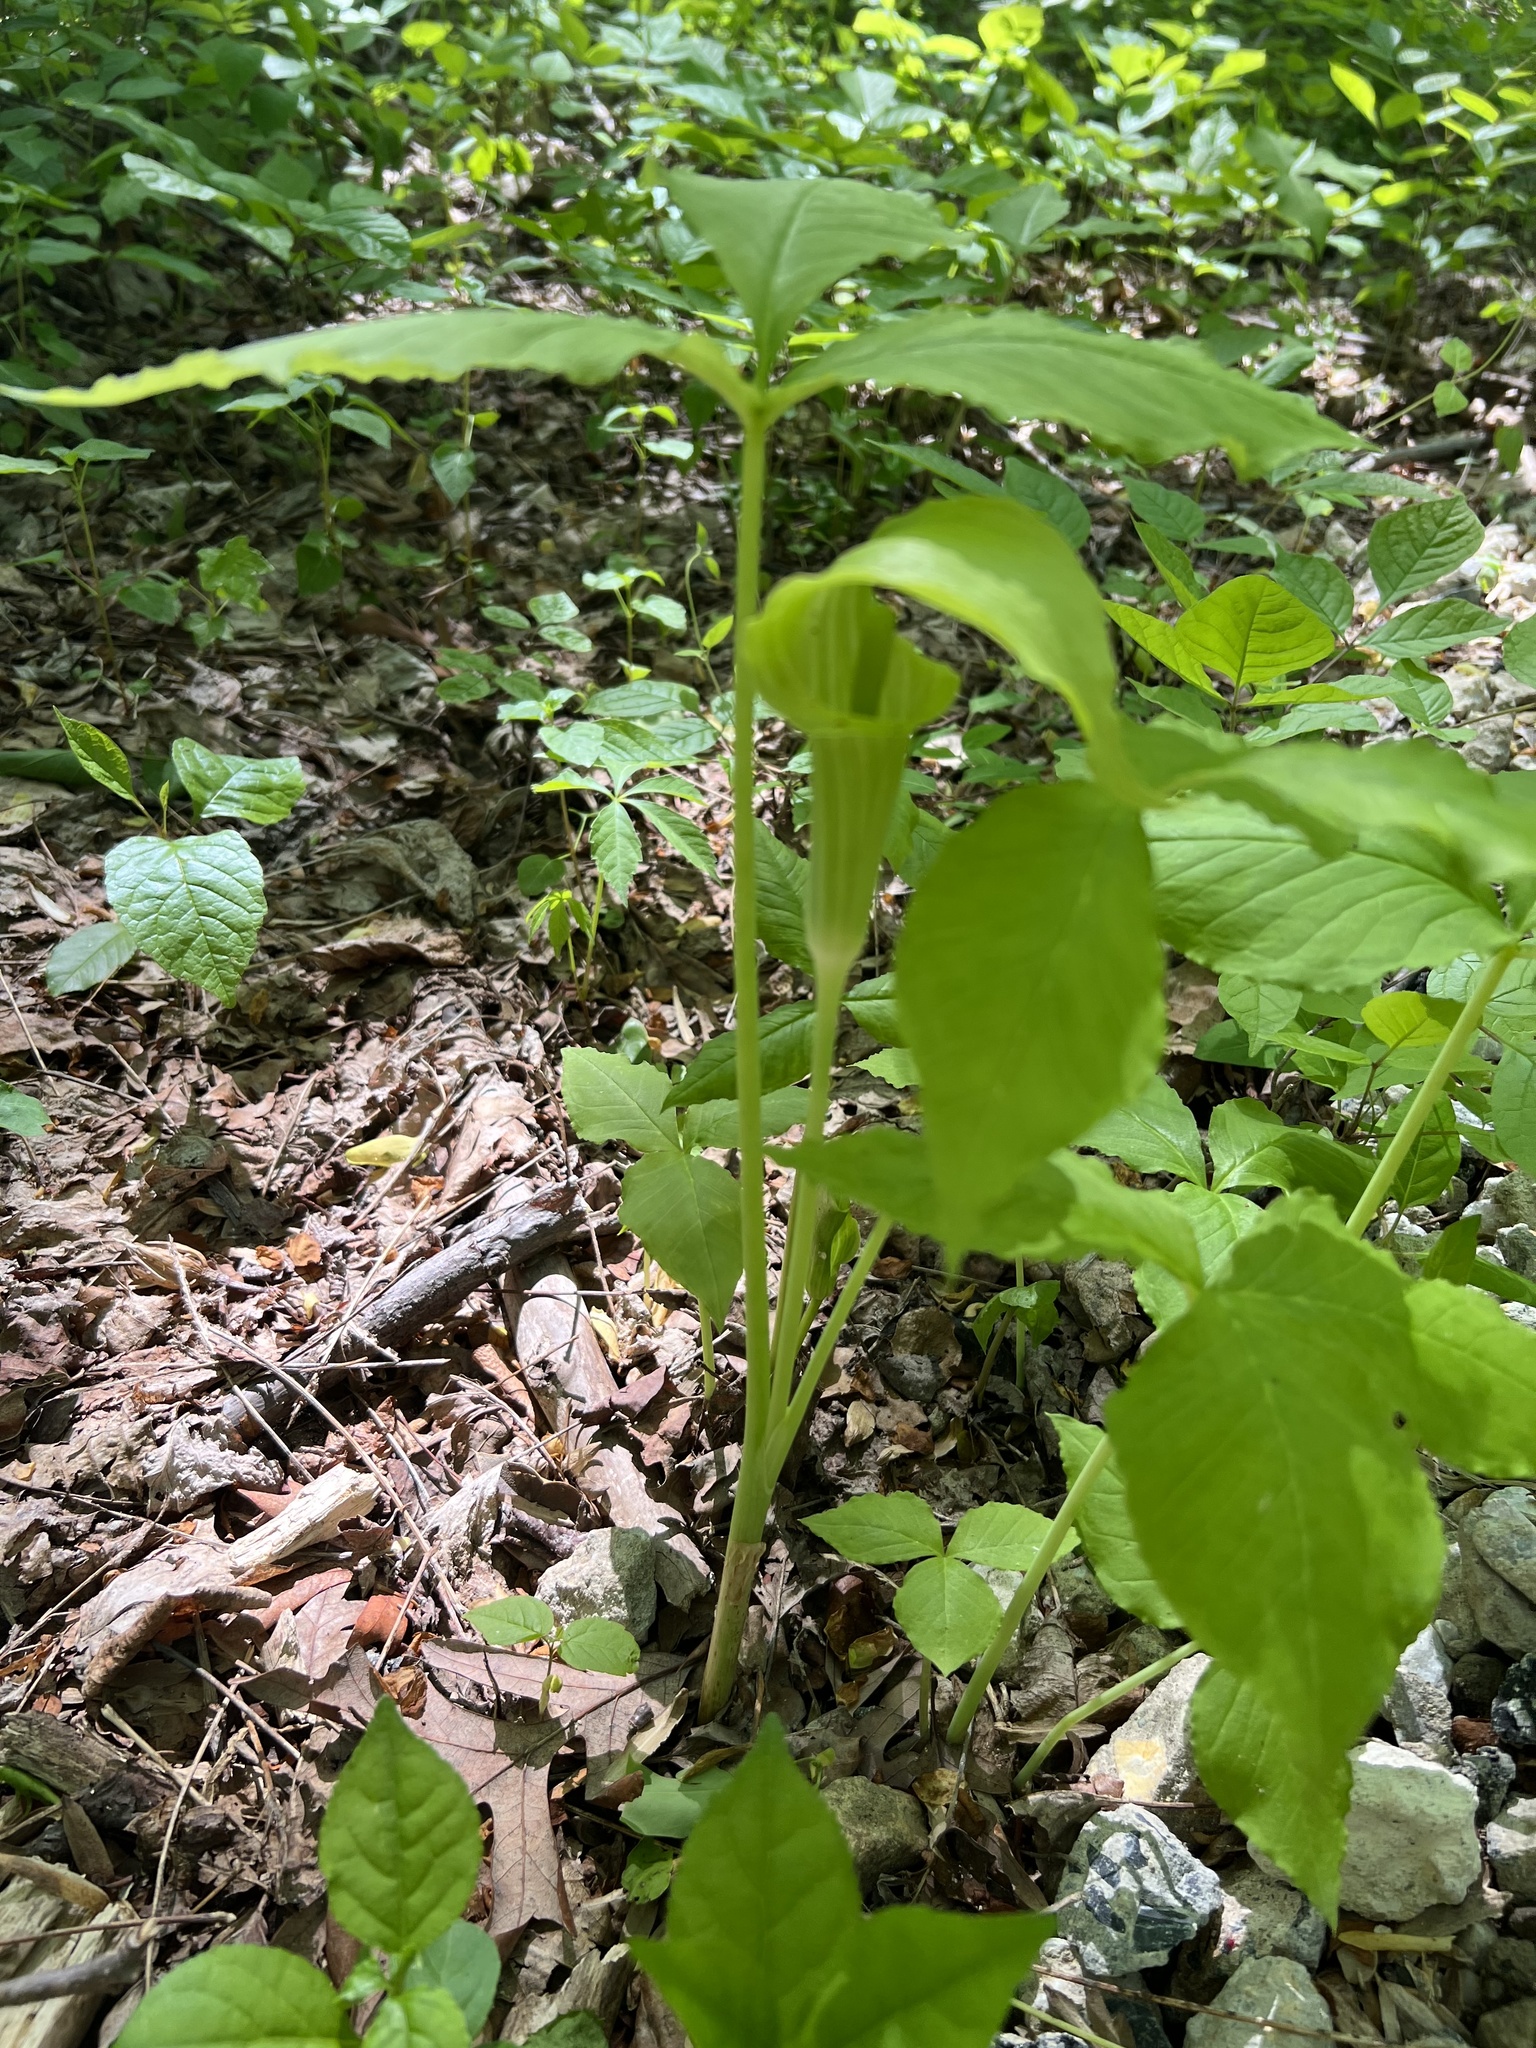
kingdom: Plantae
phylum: Tracheophyta
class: Liliopsida
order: Alismatales
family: Araceae
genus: Arisaema
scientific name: Arisaema triphyllum
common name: Jack-in-the-pulpit
